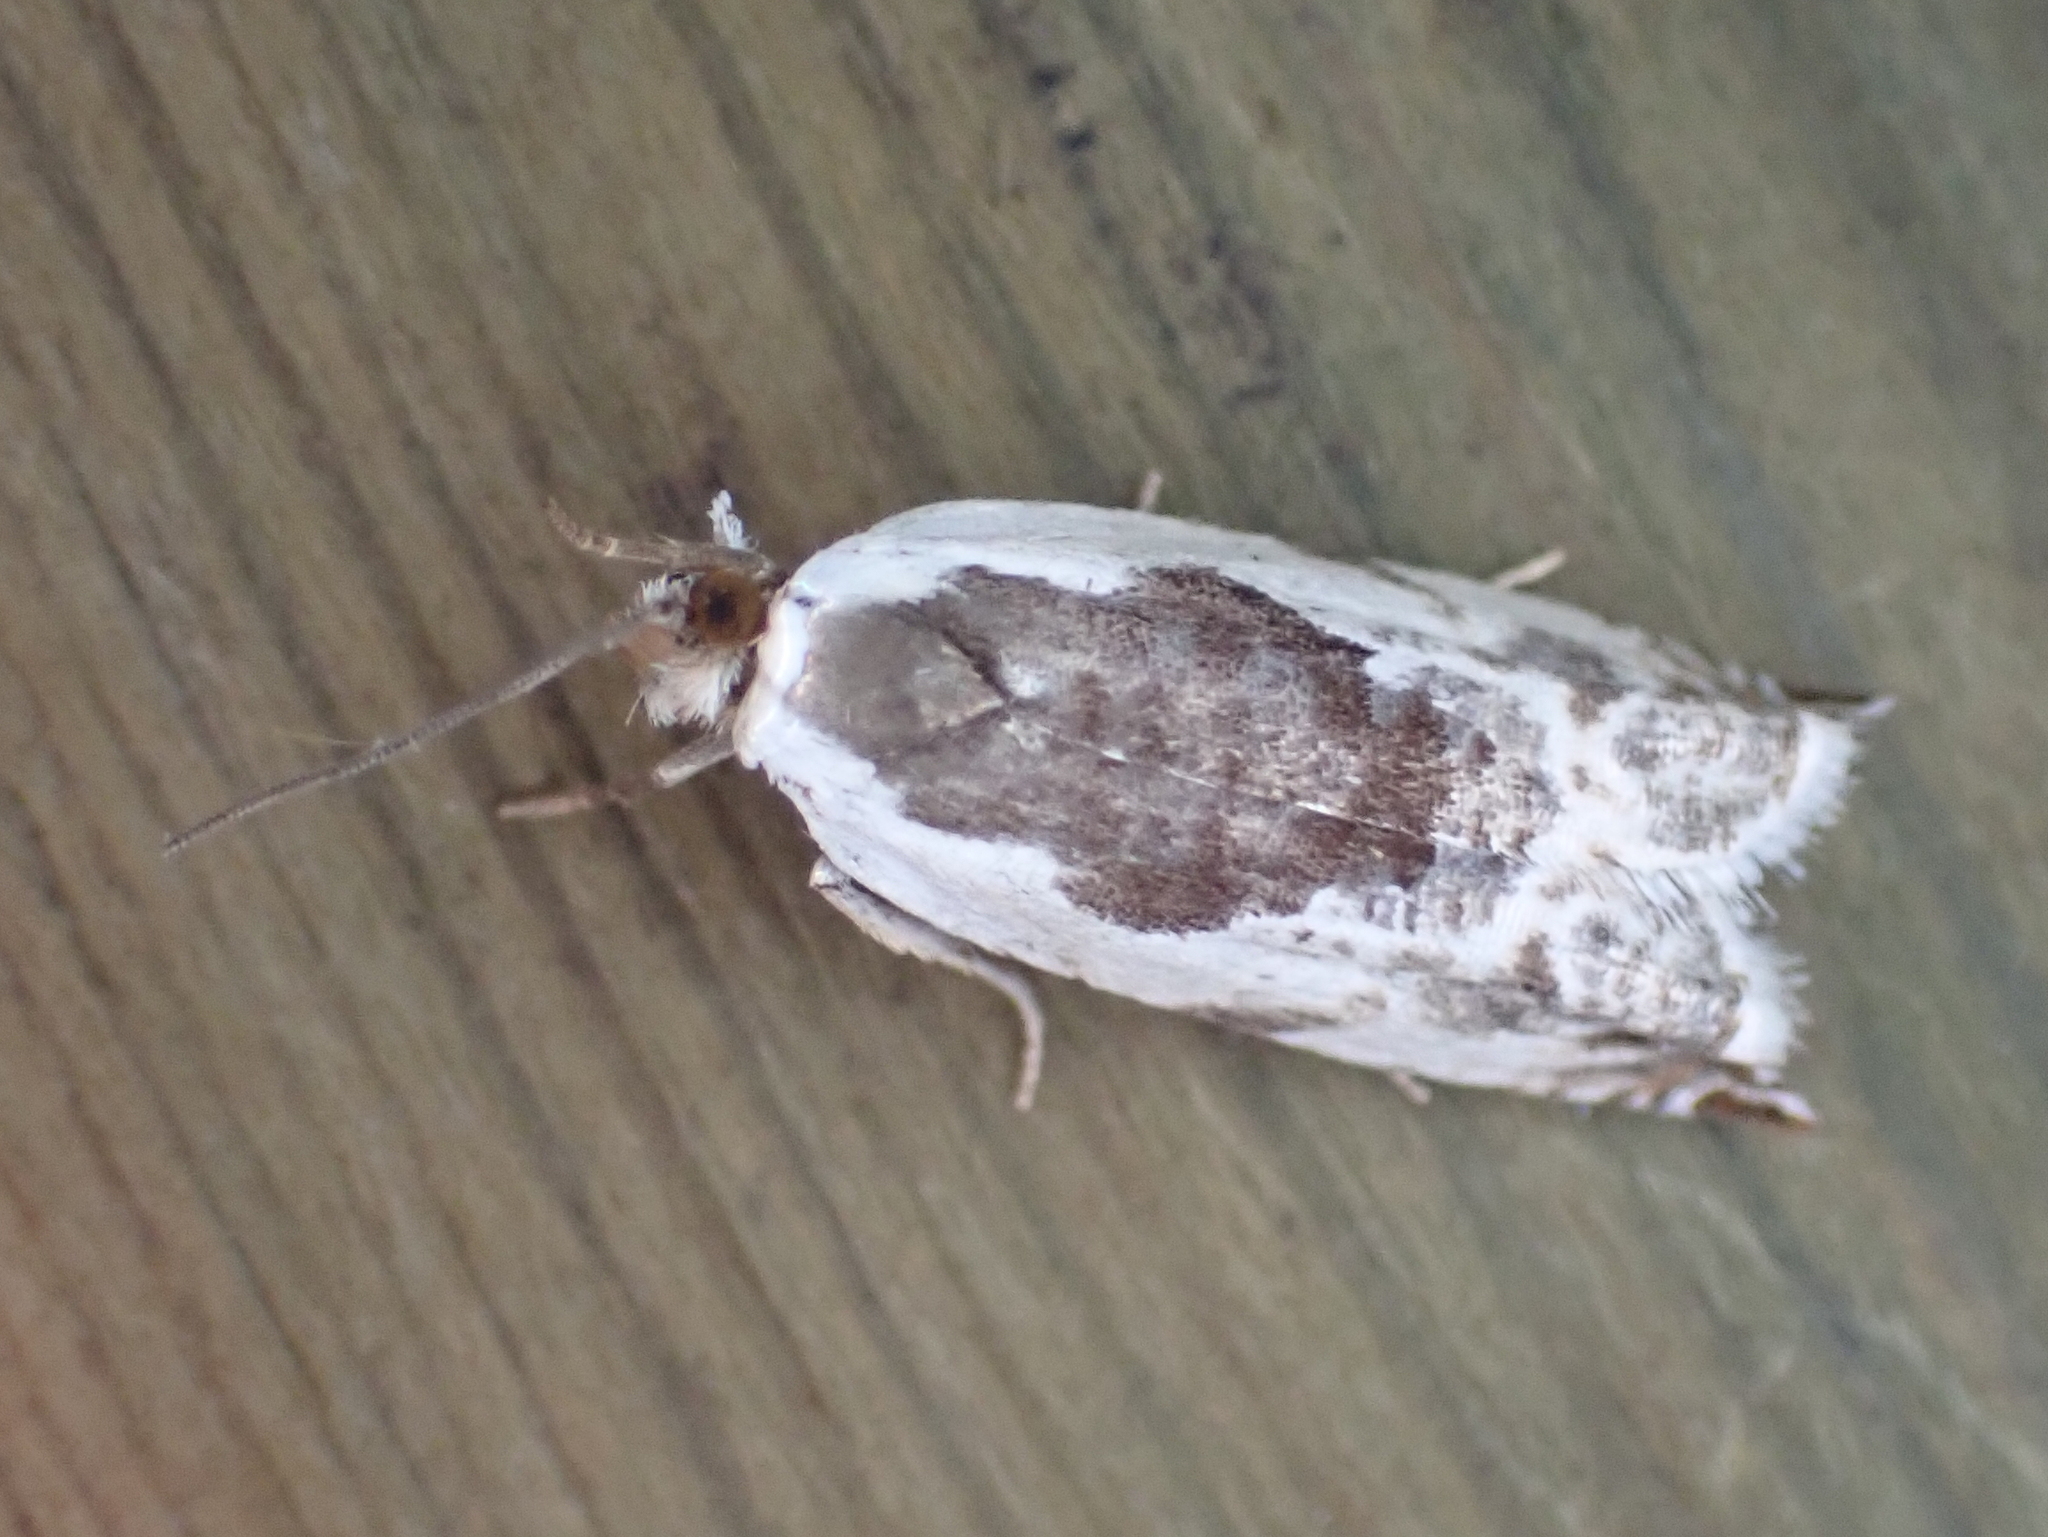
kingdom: Animalia
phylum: Arthropoda
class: Insecta
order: Lepidoptera
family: Tortricidae
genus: Ancylis
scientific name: Ancylis nubeculana
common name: Little cloud ancylis moth
